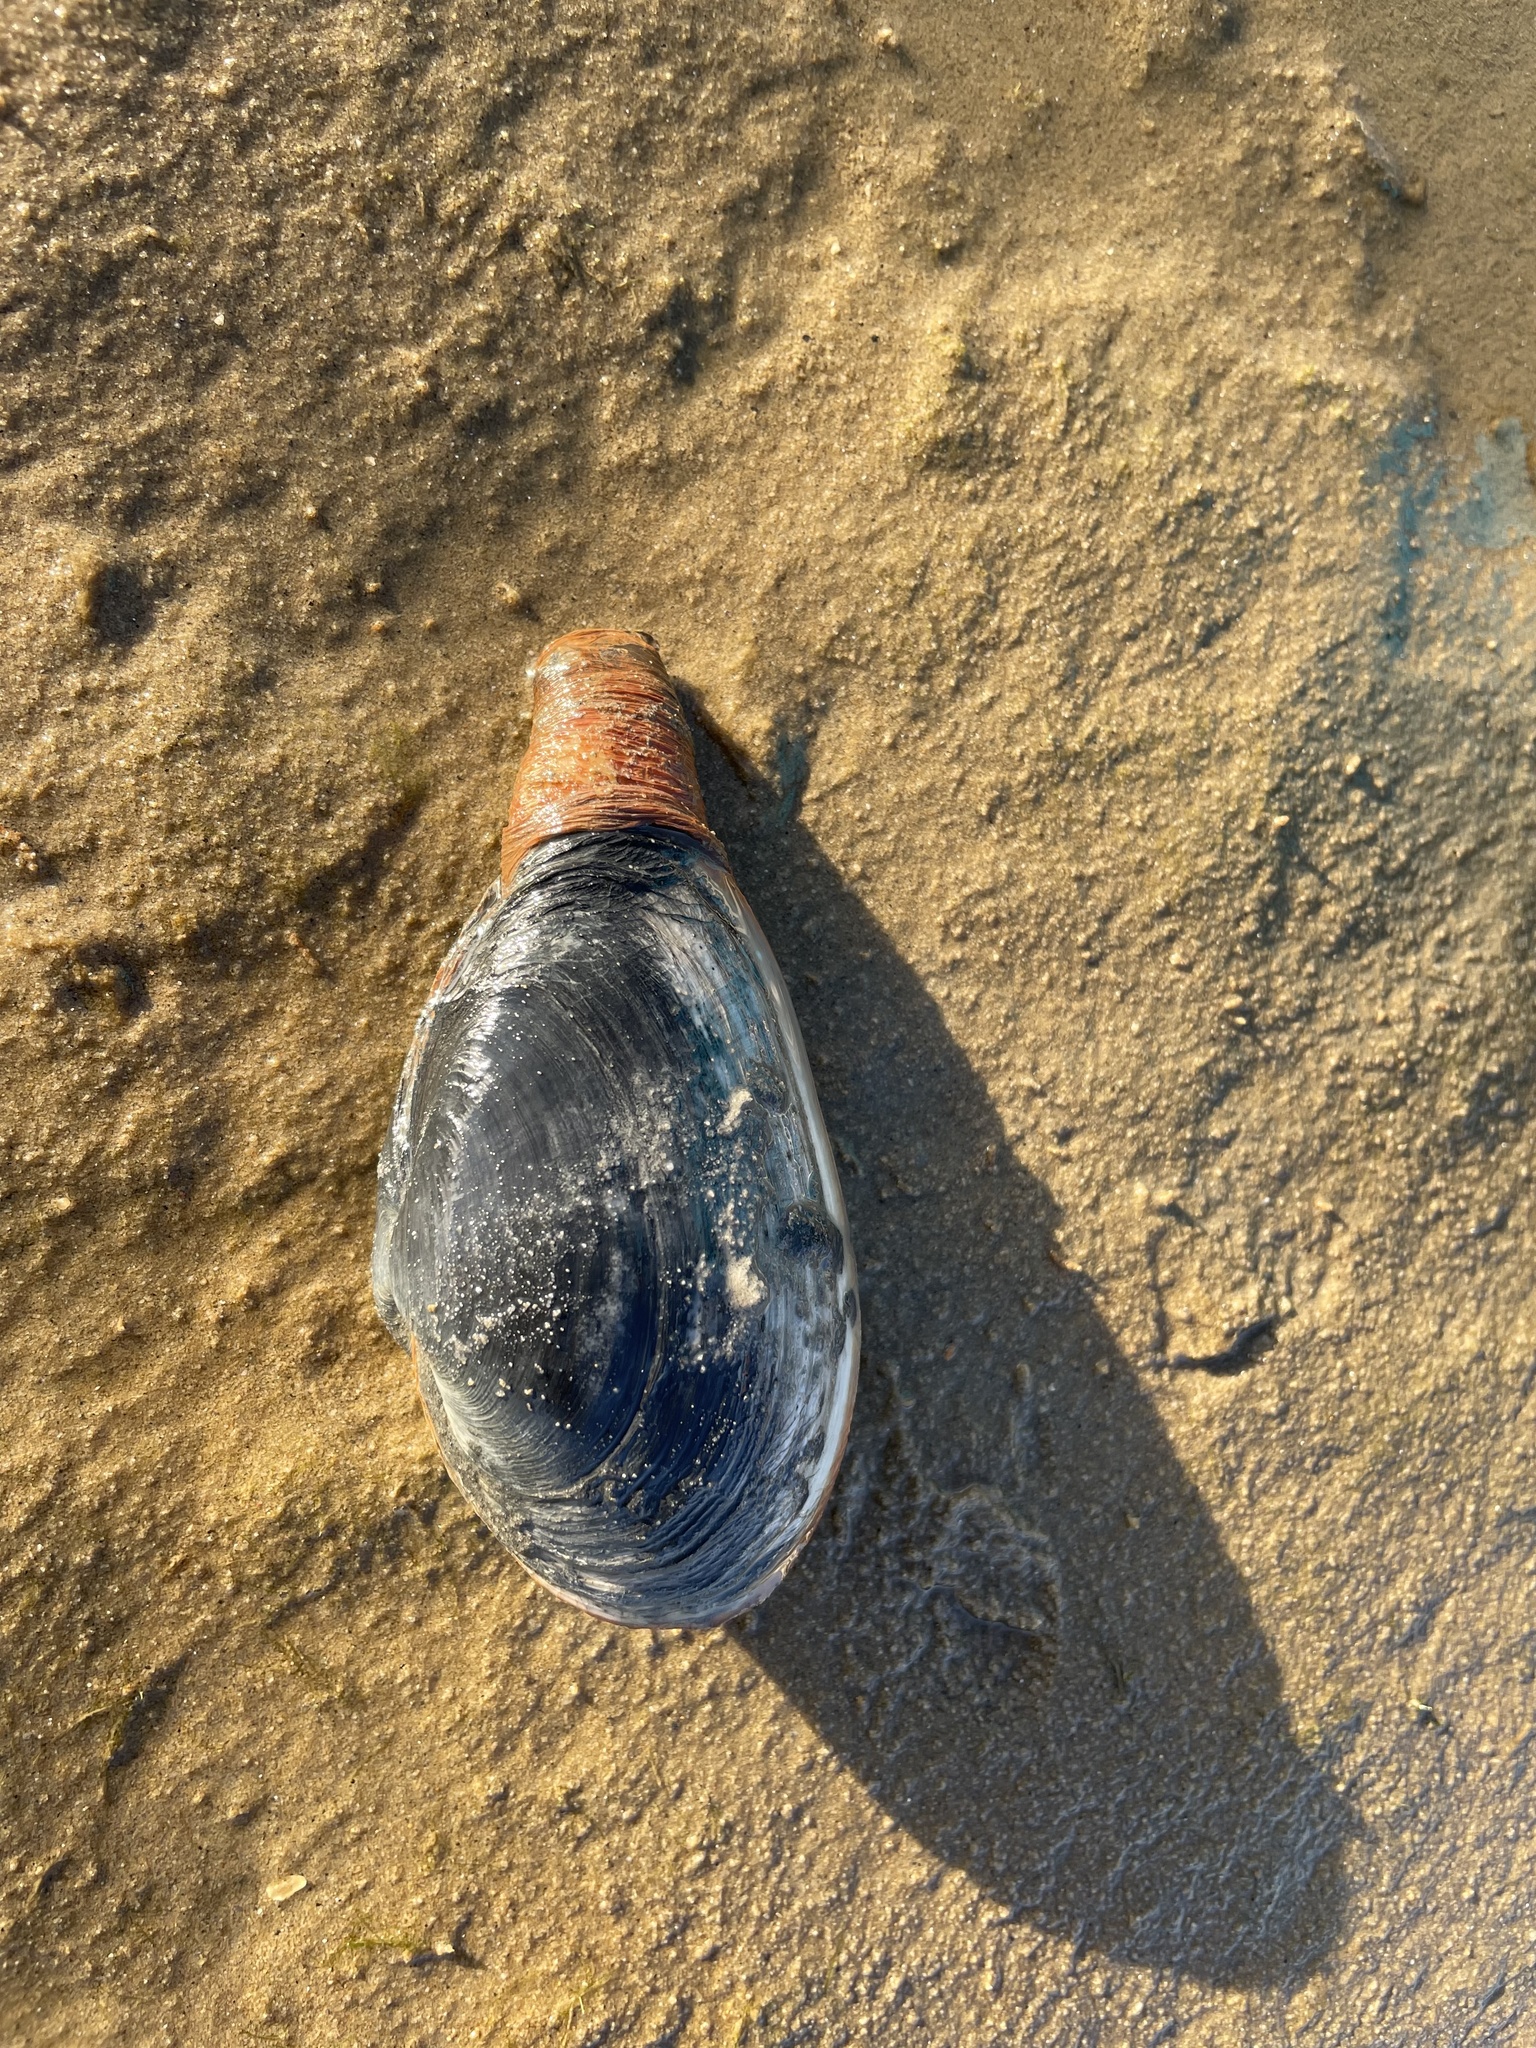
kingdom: Animalia
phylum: Mollusca
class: Bivalvia
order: Venerida
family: Mactridae
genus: Lutraria
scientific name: Lutraria lutraria
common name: Common otter shell
